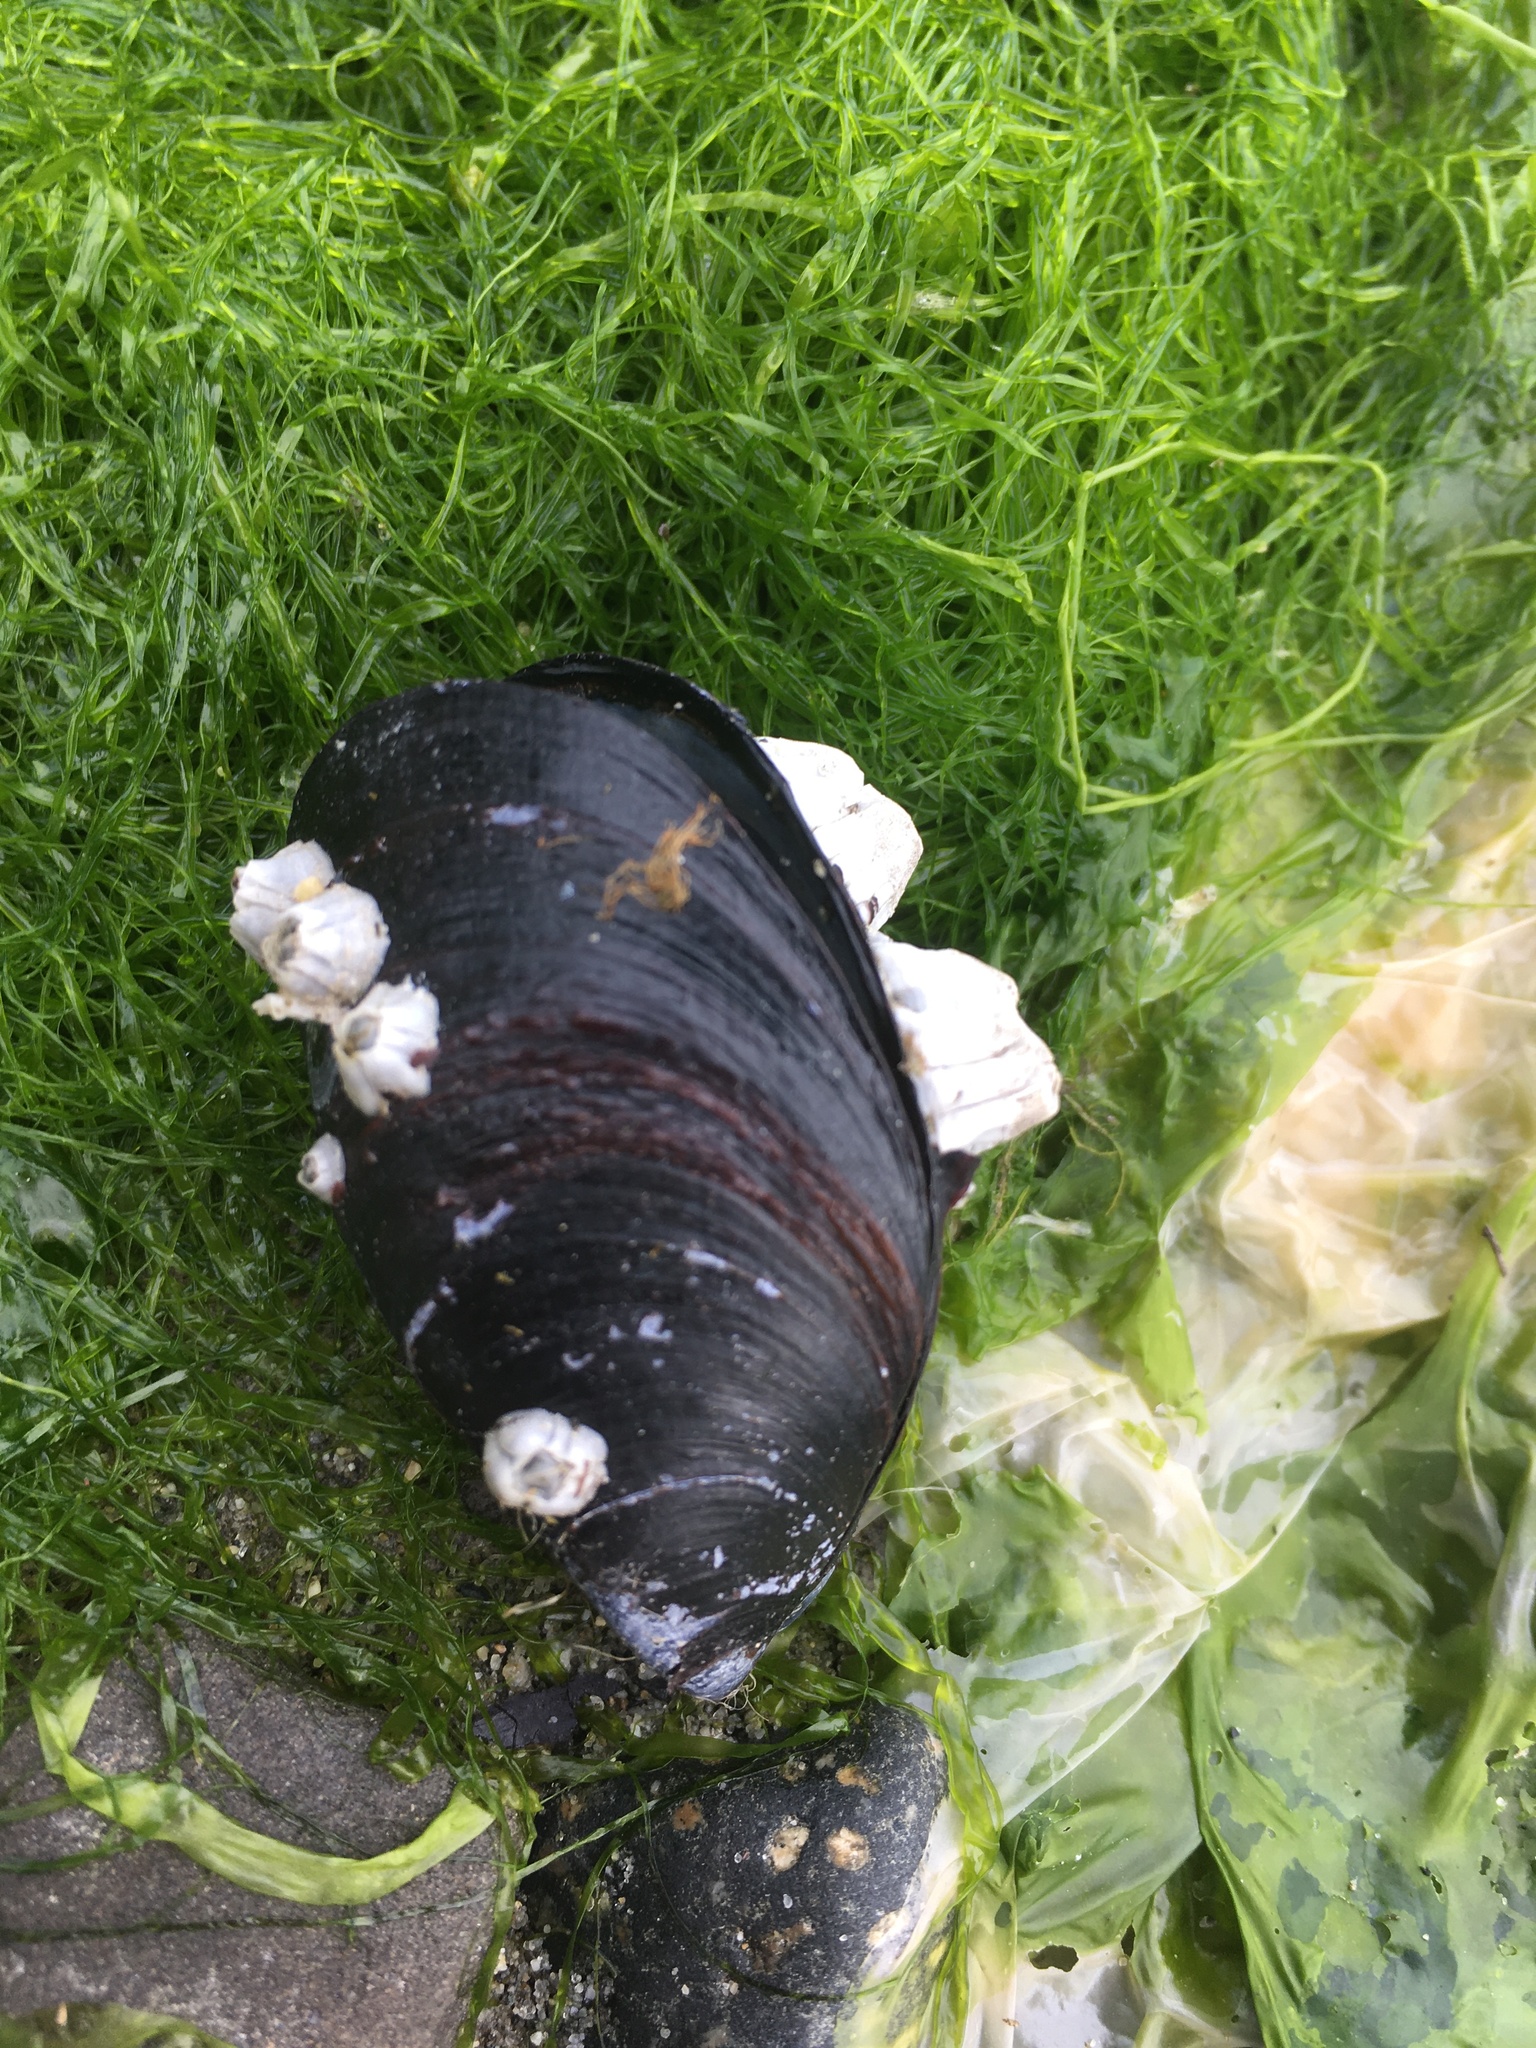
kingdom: Animalia
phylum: Mollusca
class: Bivalvia
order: Mytilida
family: Mytilidae
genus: Mytilus
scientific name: Mytilus
